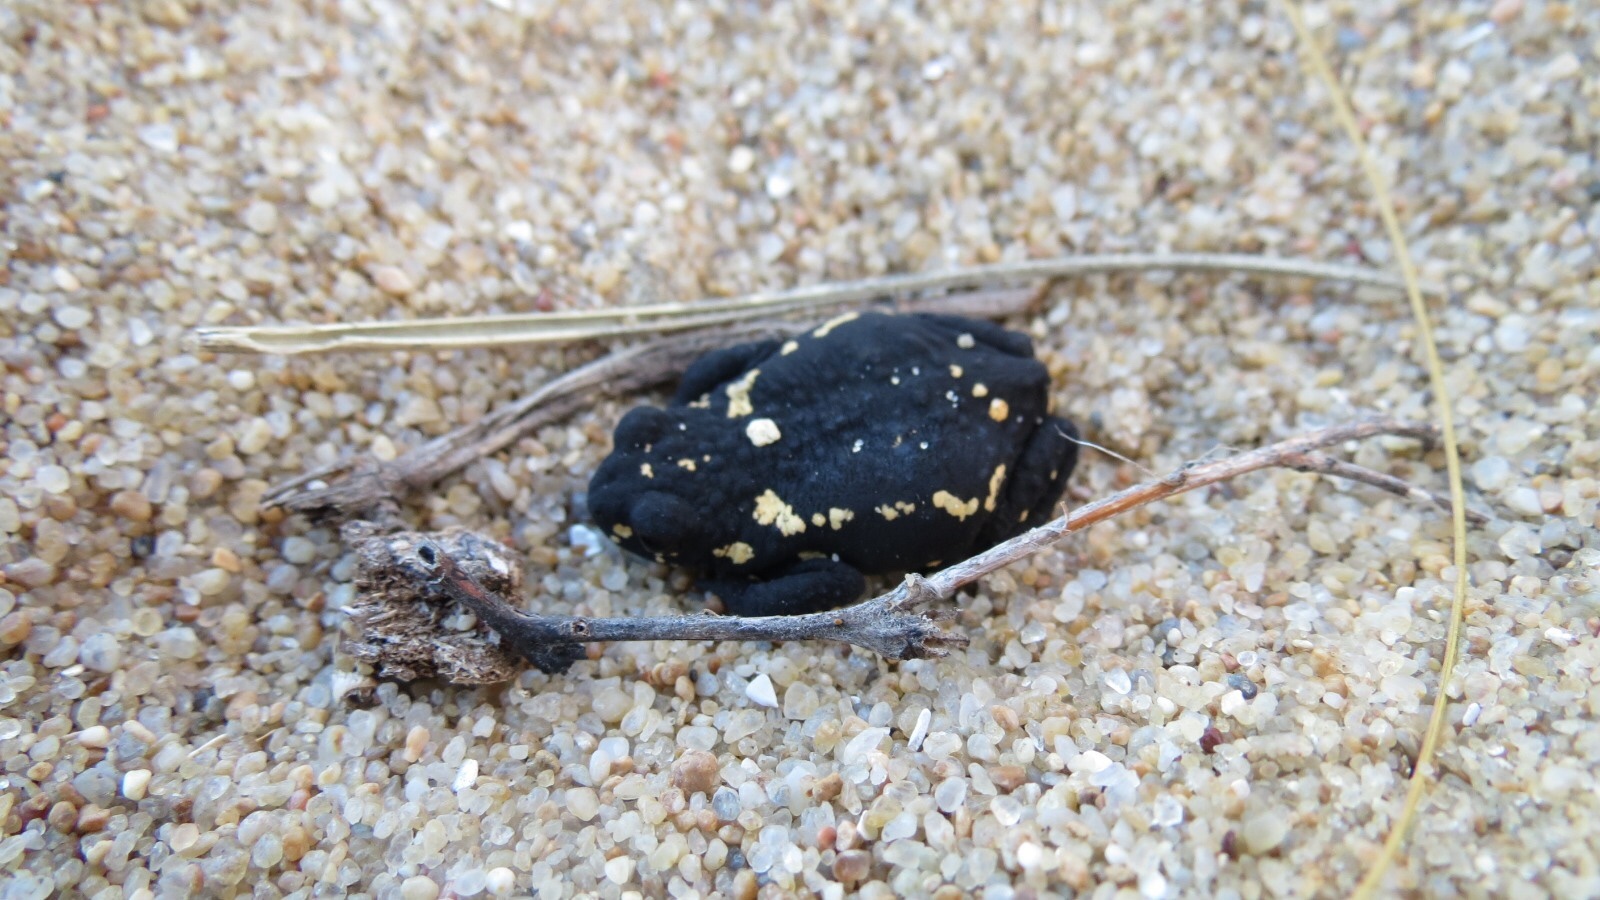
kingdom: Animalia
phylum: Chordata
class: Amphibia
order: Anura
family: Bufonidae
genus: Melanophryniscus
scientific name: Melanophryniscus montevidensis
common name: Montevideo redbelly toad
